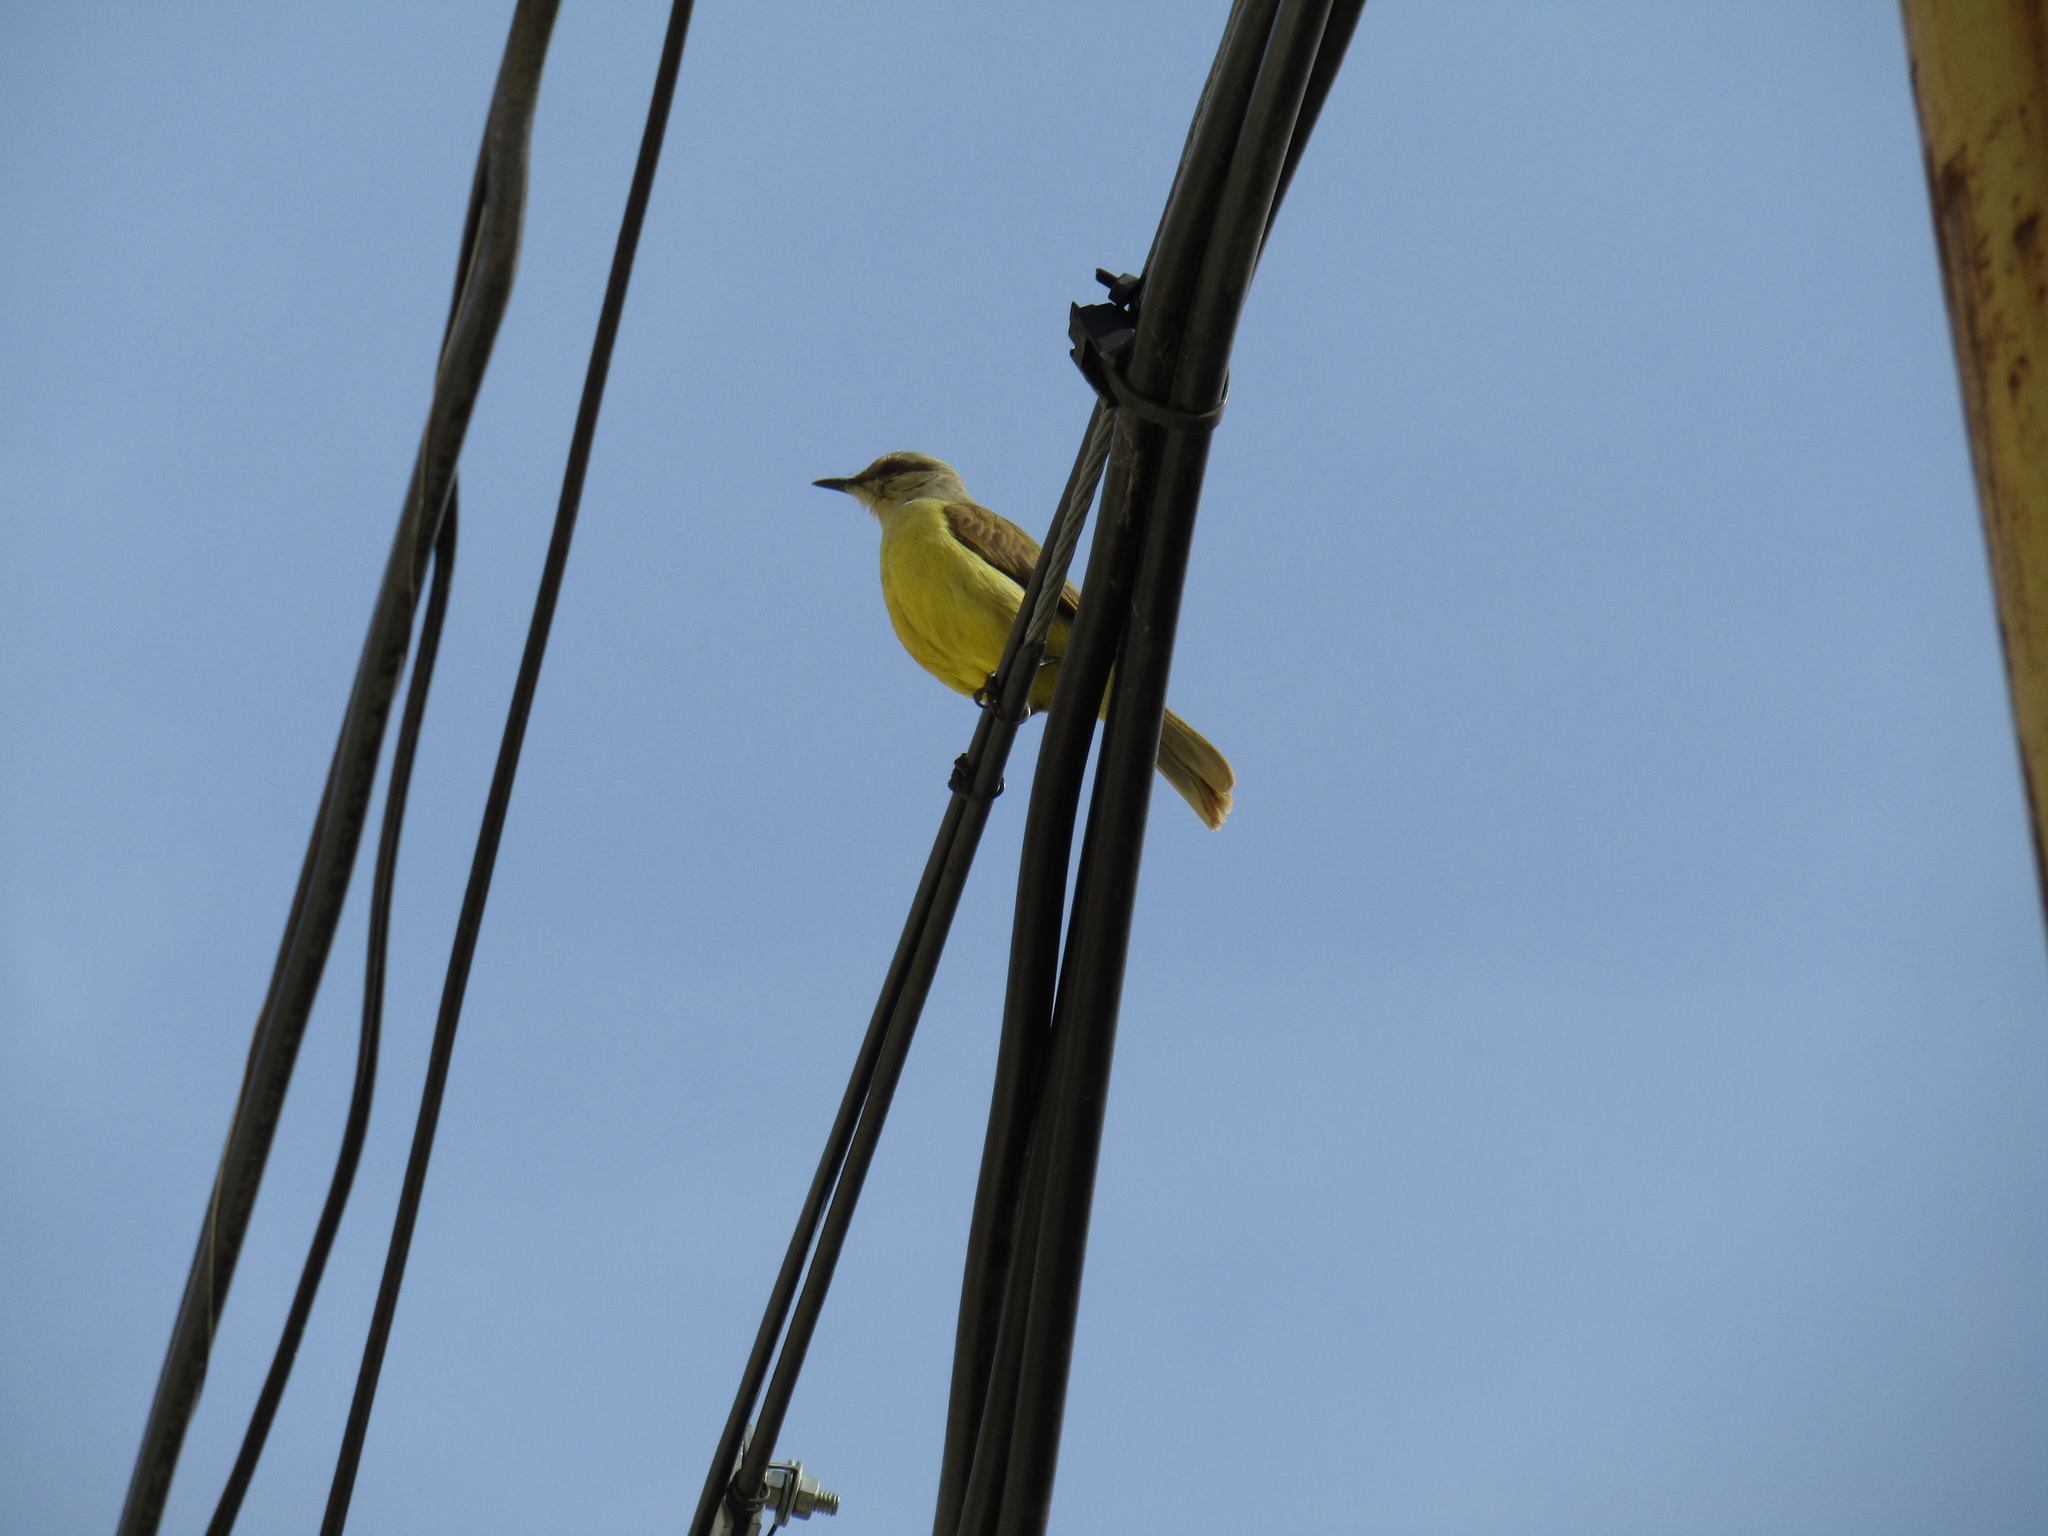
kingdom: Animalia
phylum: Chordata
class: Aves
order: Passeriformes
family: Tyrannidae
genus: Machetornis
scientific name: Machetornis rixosa
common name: Cattle tyrant
